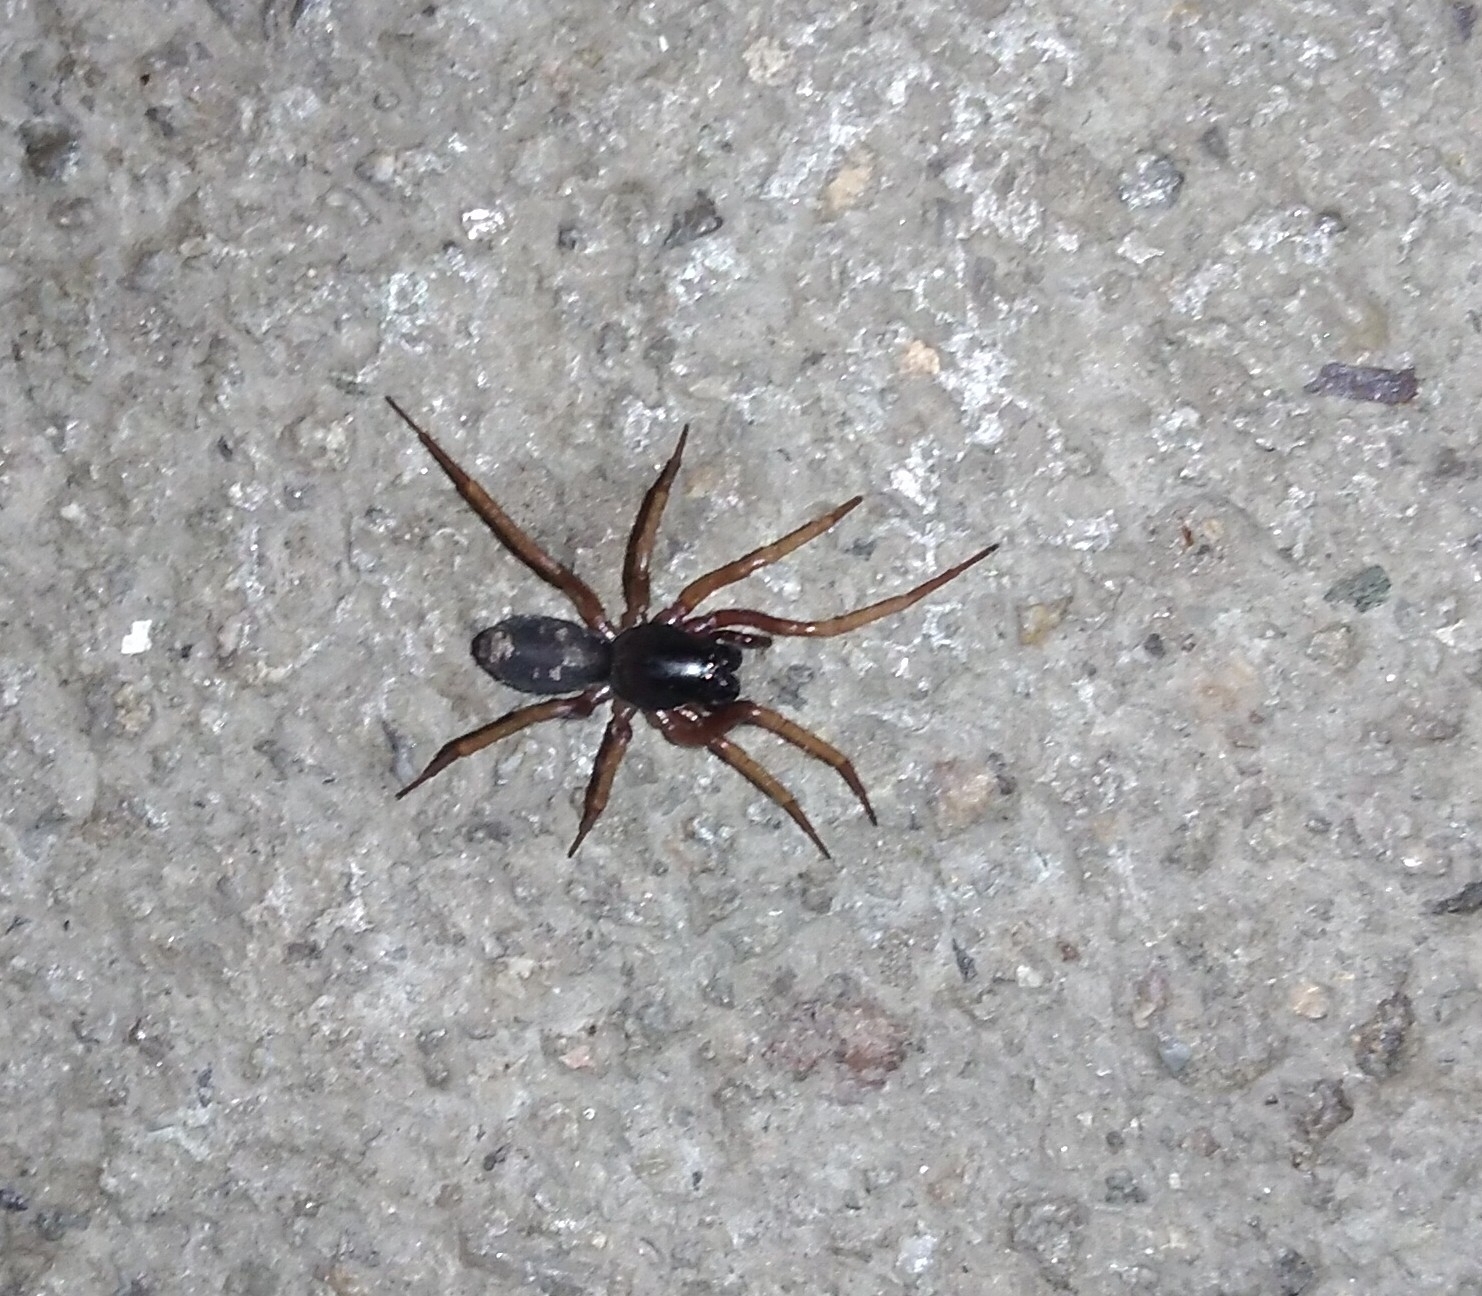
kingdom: Animalia
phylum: Arthropoda
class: Arachnida
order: Araneae
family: Corinnidae
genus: Falconina
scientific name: Falconina gracilis
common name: Antmimic spider
